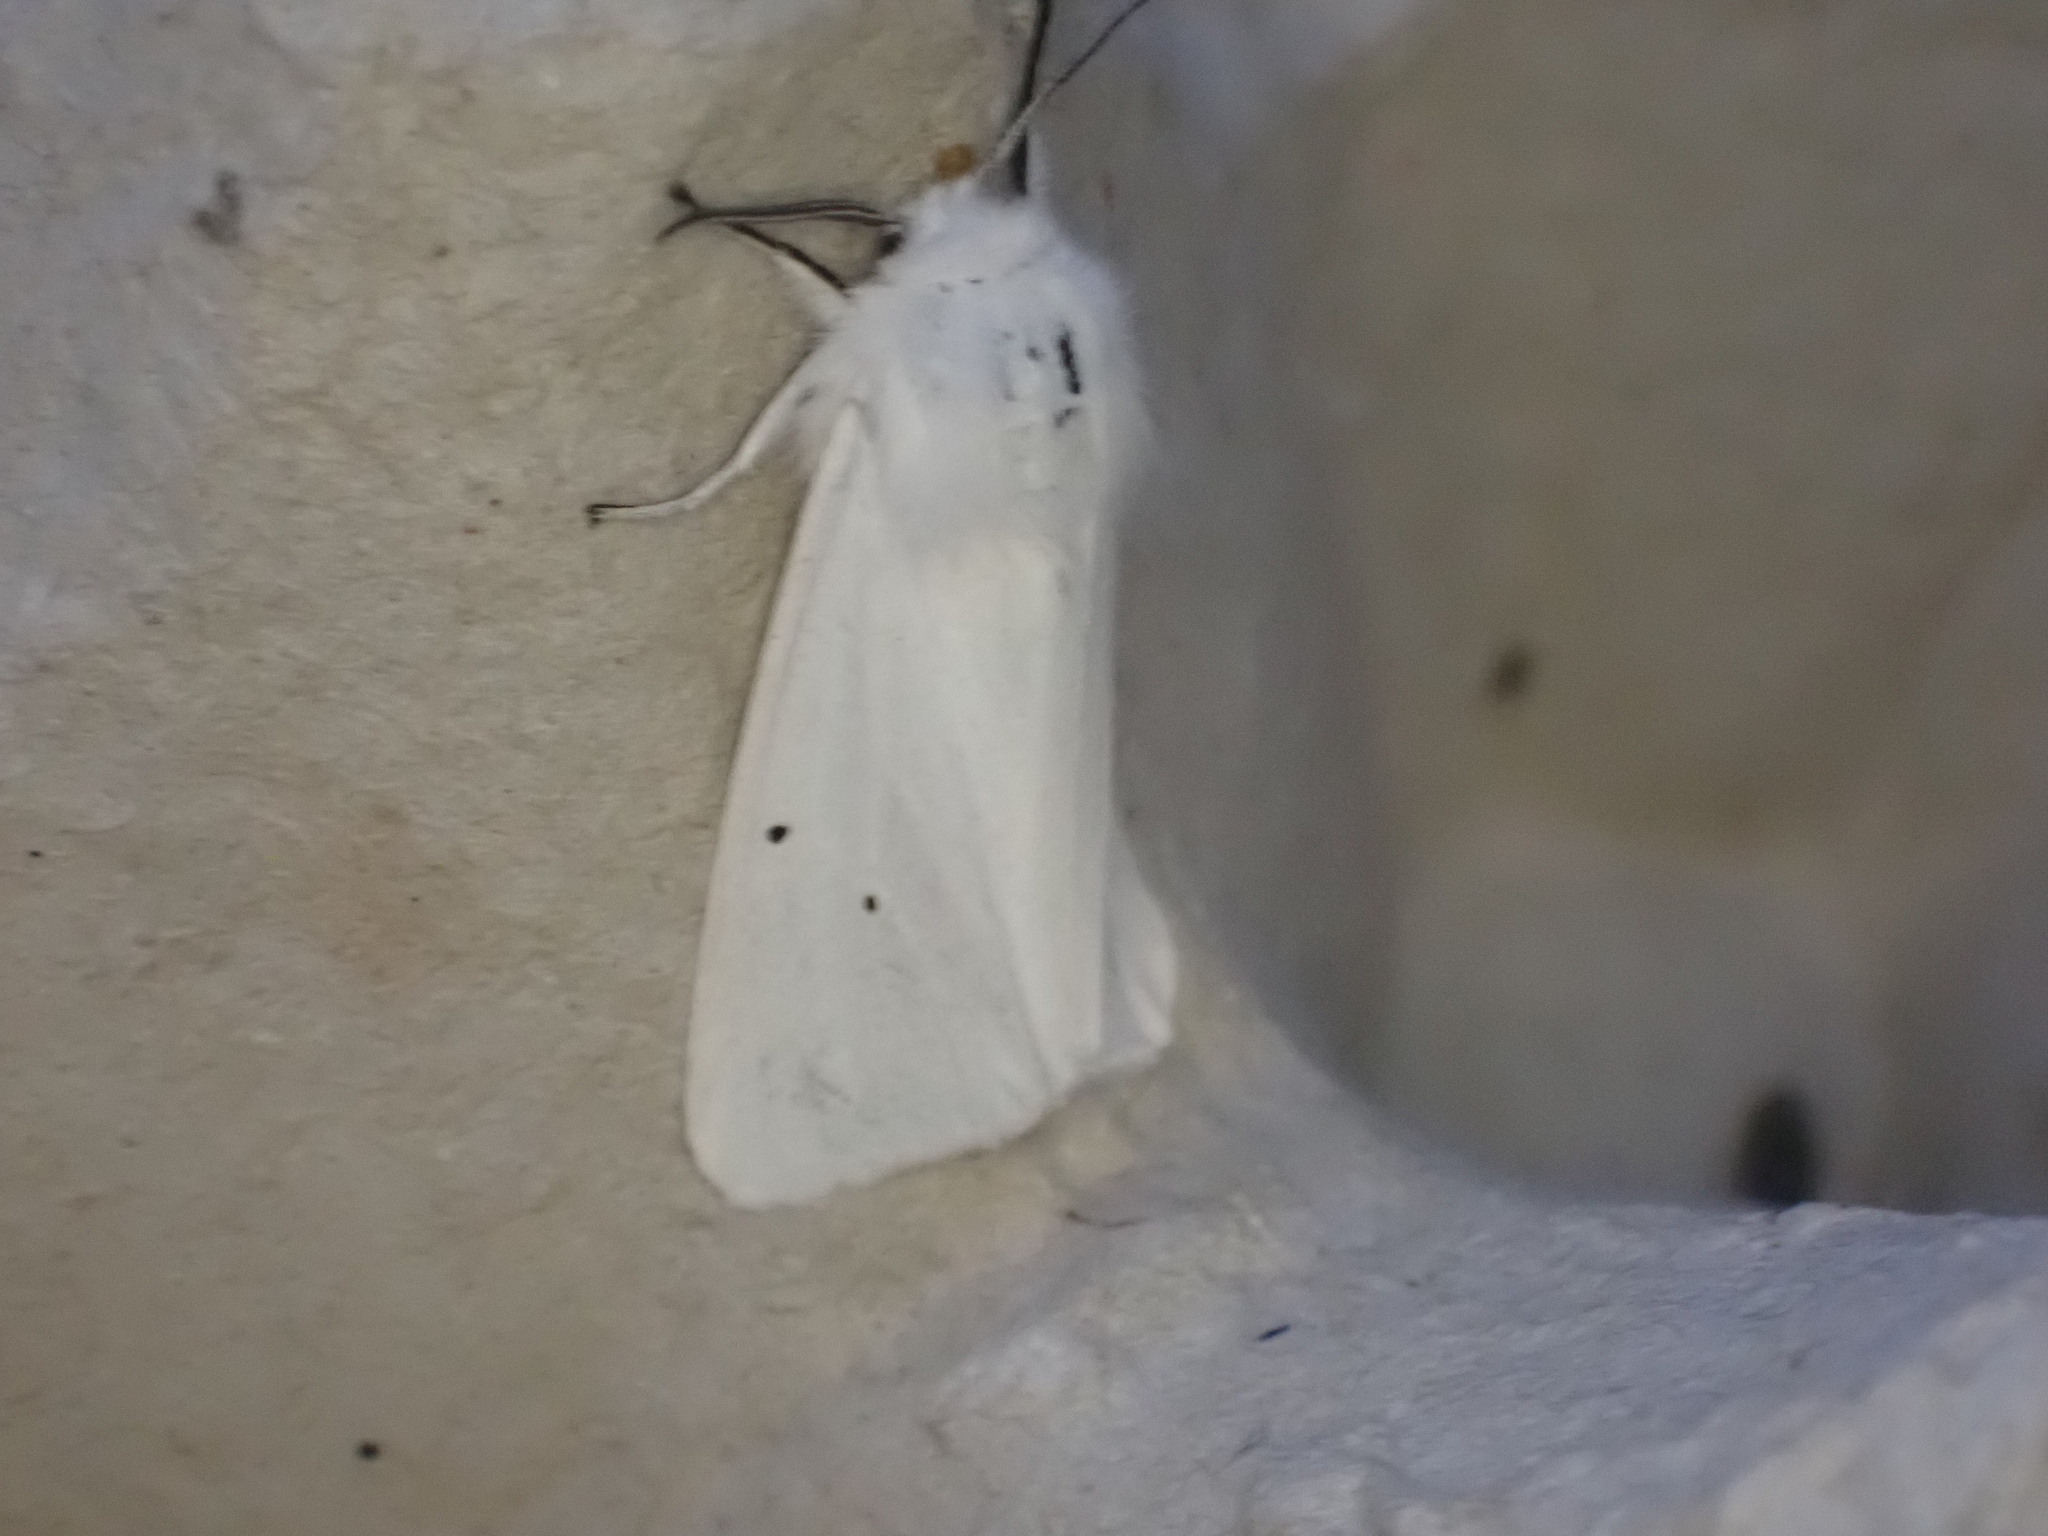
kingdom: Animalia
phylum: Arthropoda
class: Insecta
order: Lepidoptera
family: Erebidae
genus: Spilosoma
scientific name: Spilosoma urticae
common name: Water ermine
